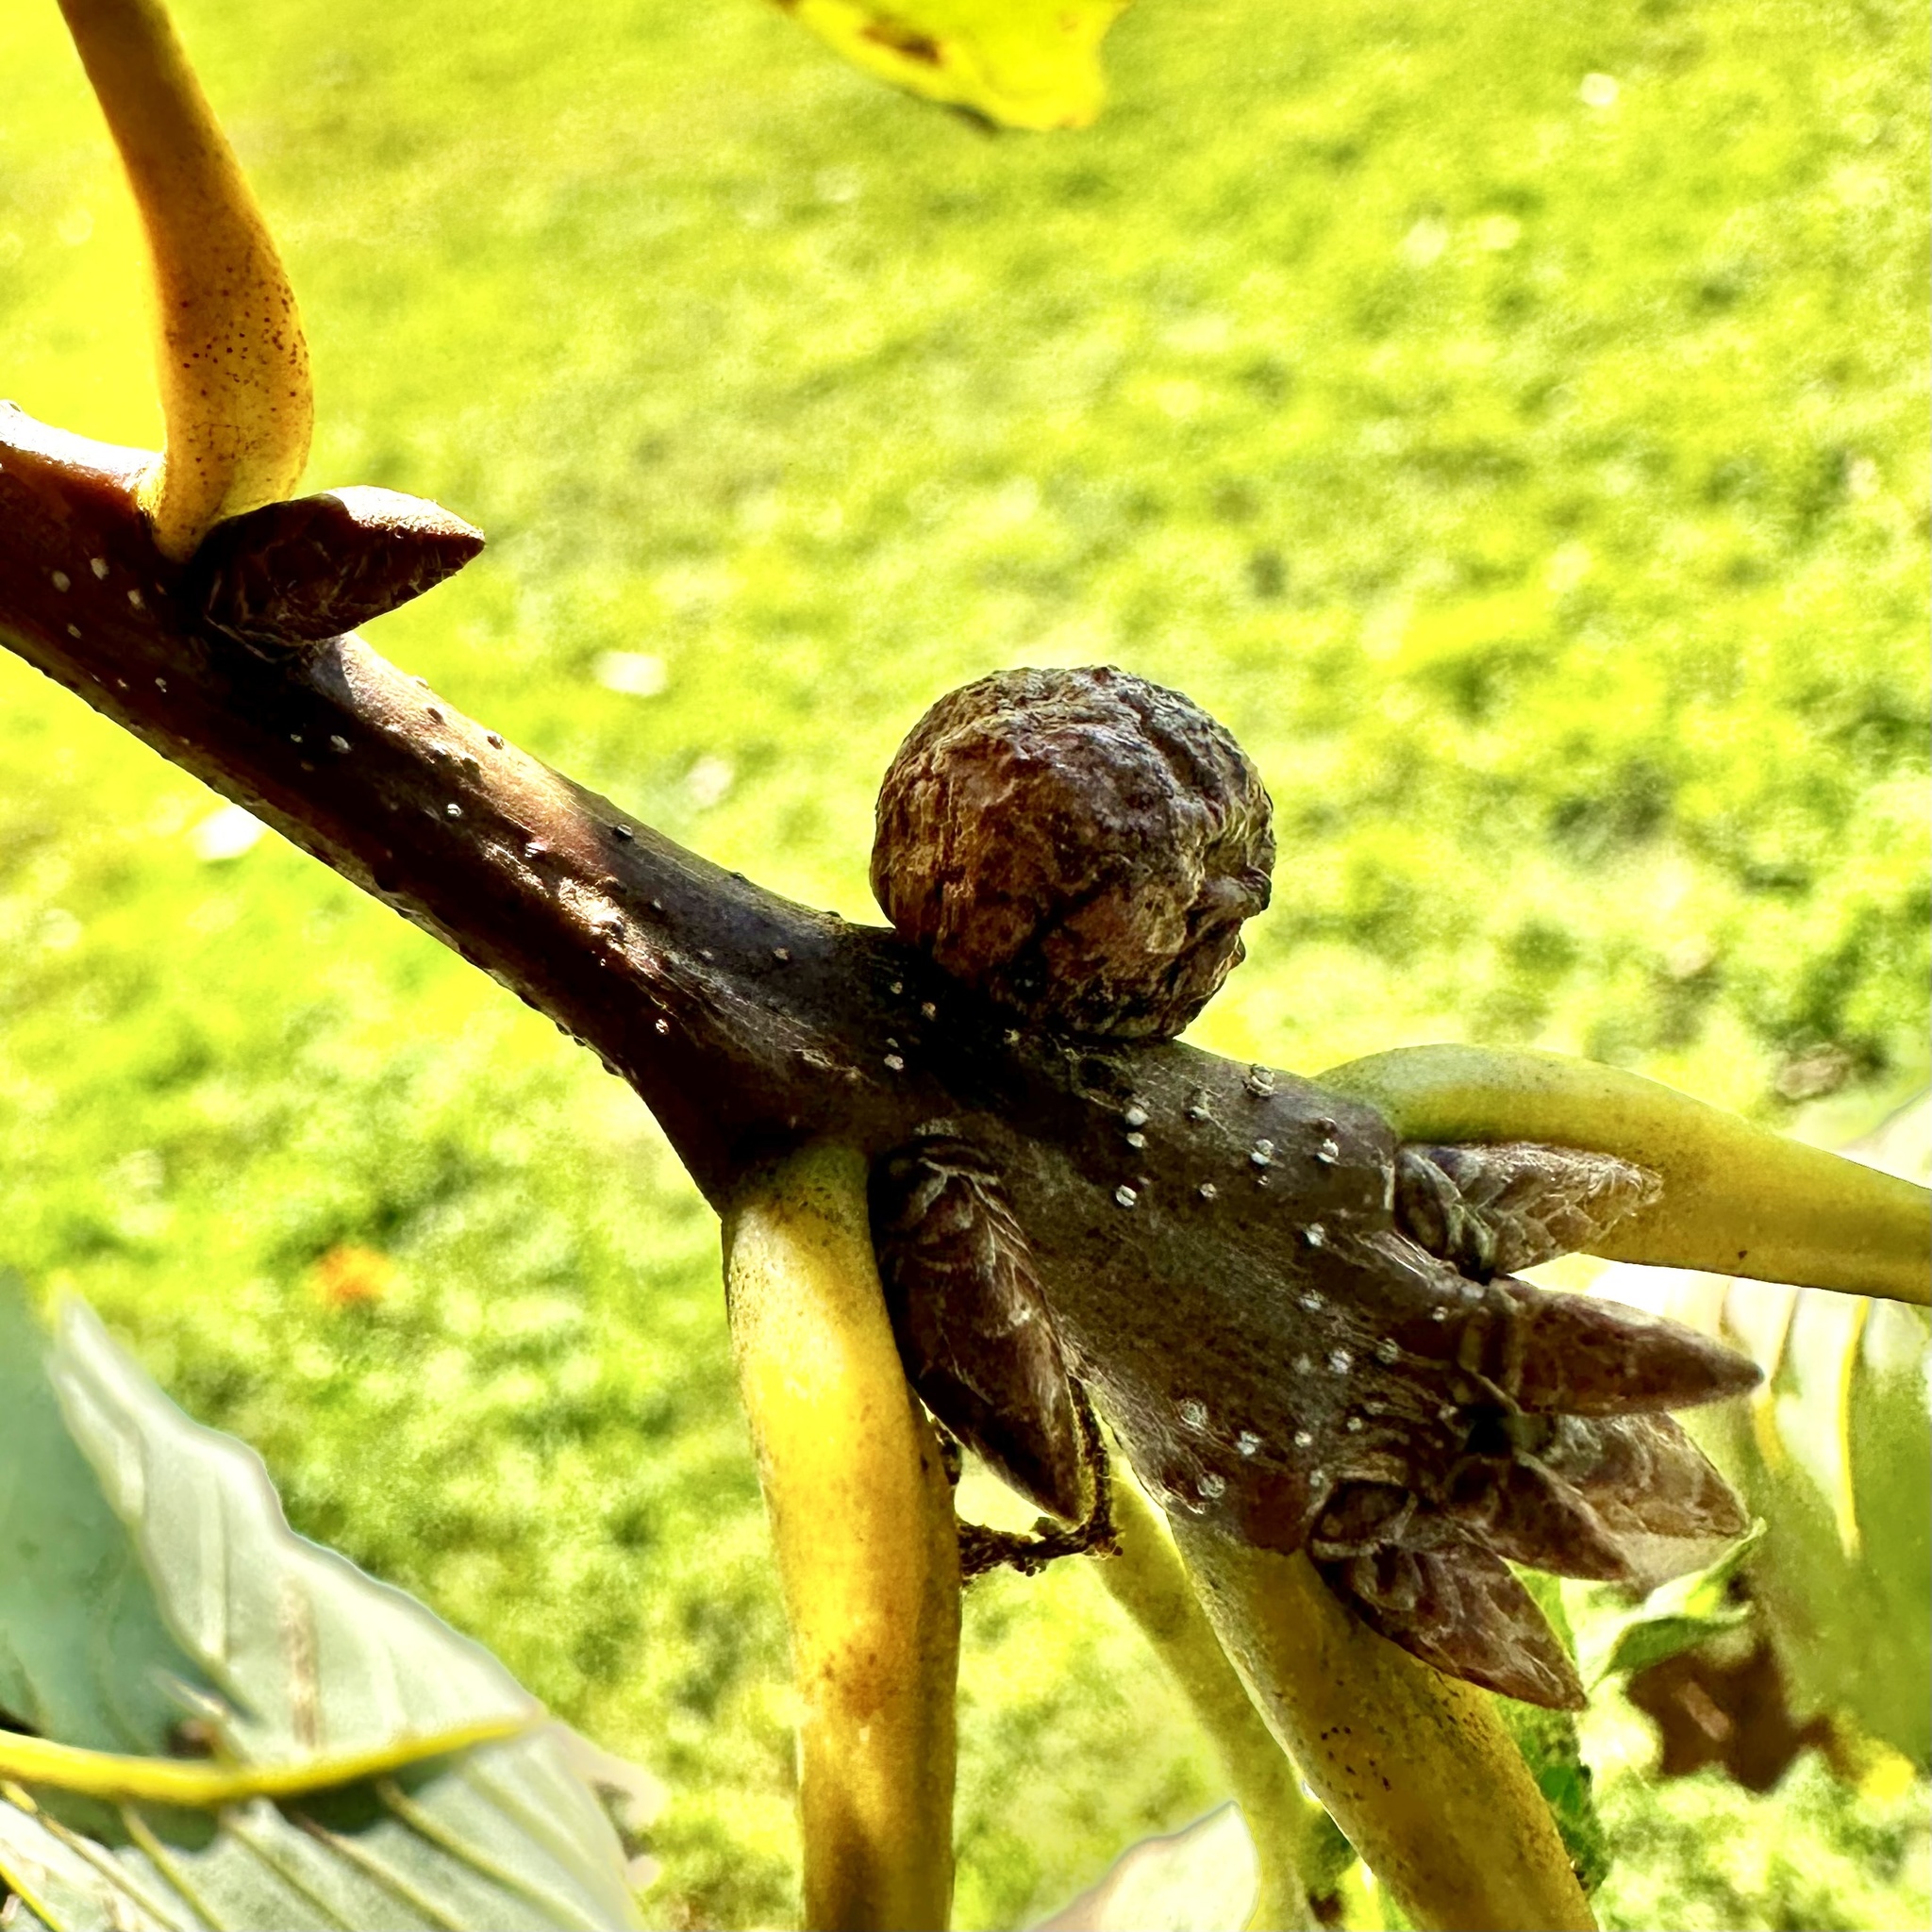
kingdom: Animalia
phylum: Arthropoda
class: Insecta
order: Hymenoptera
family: Cynipidae
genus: Disholcaspis
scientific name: Disholcaspis quercusglobulus
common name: Round bullet gall wasp
